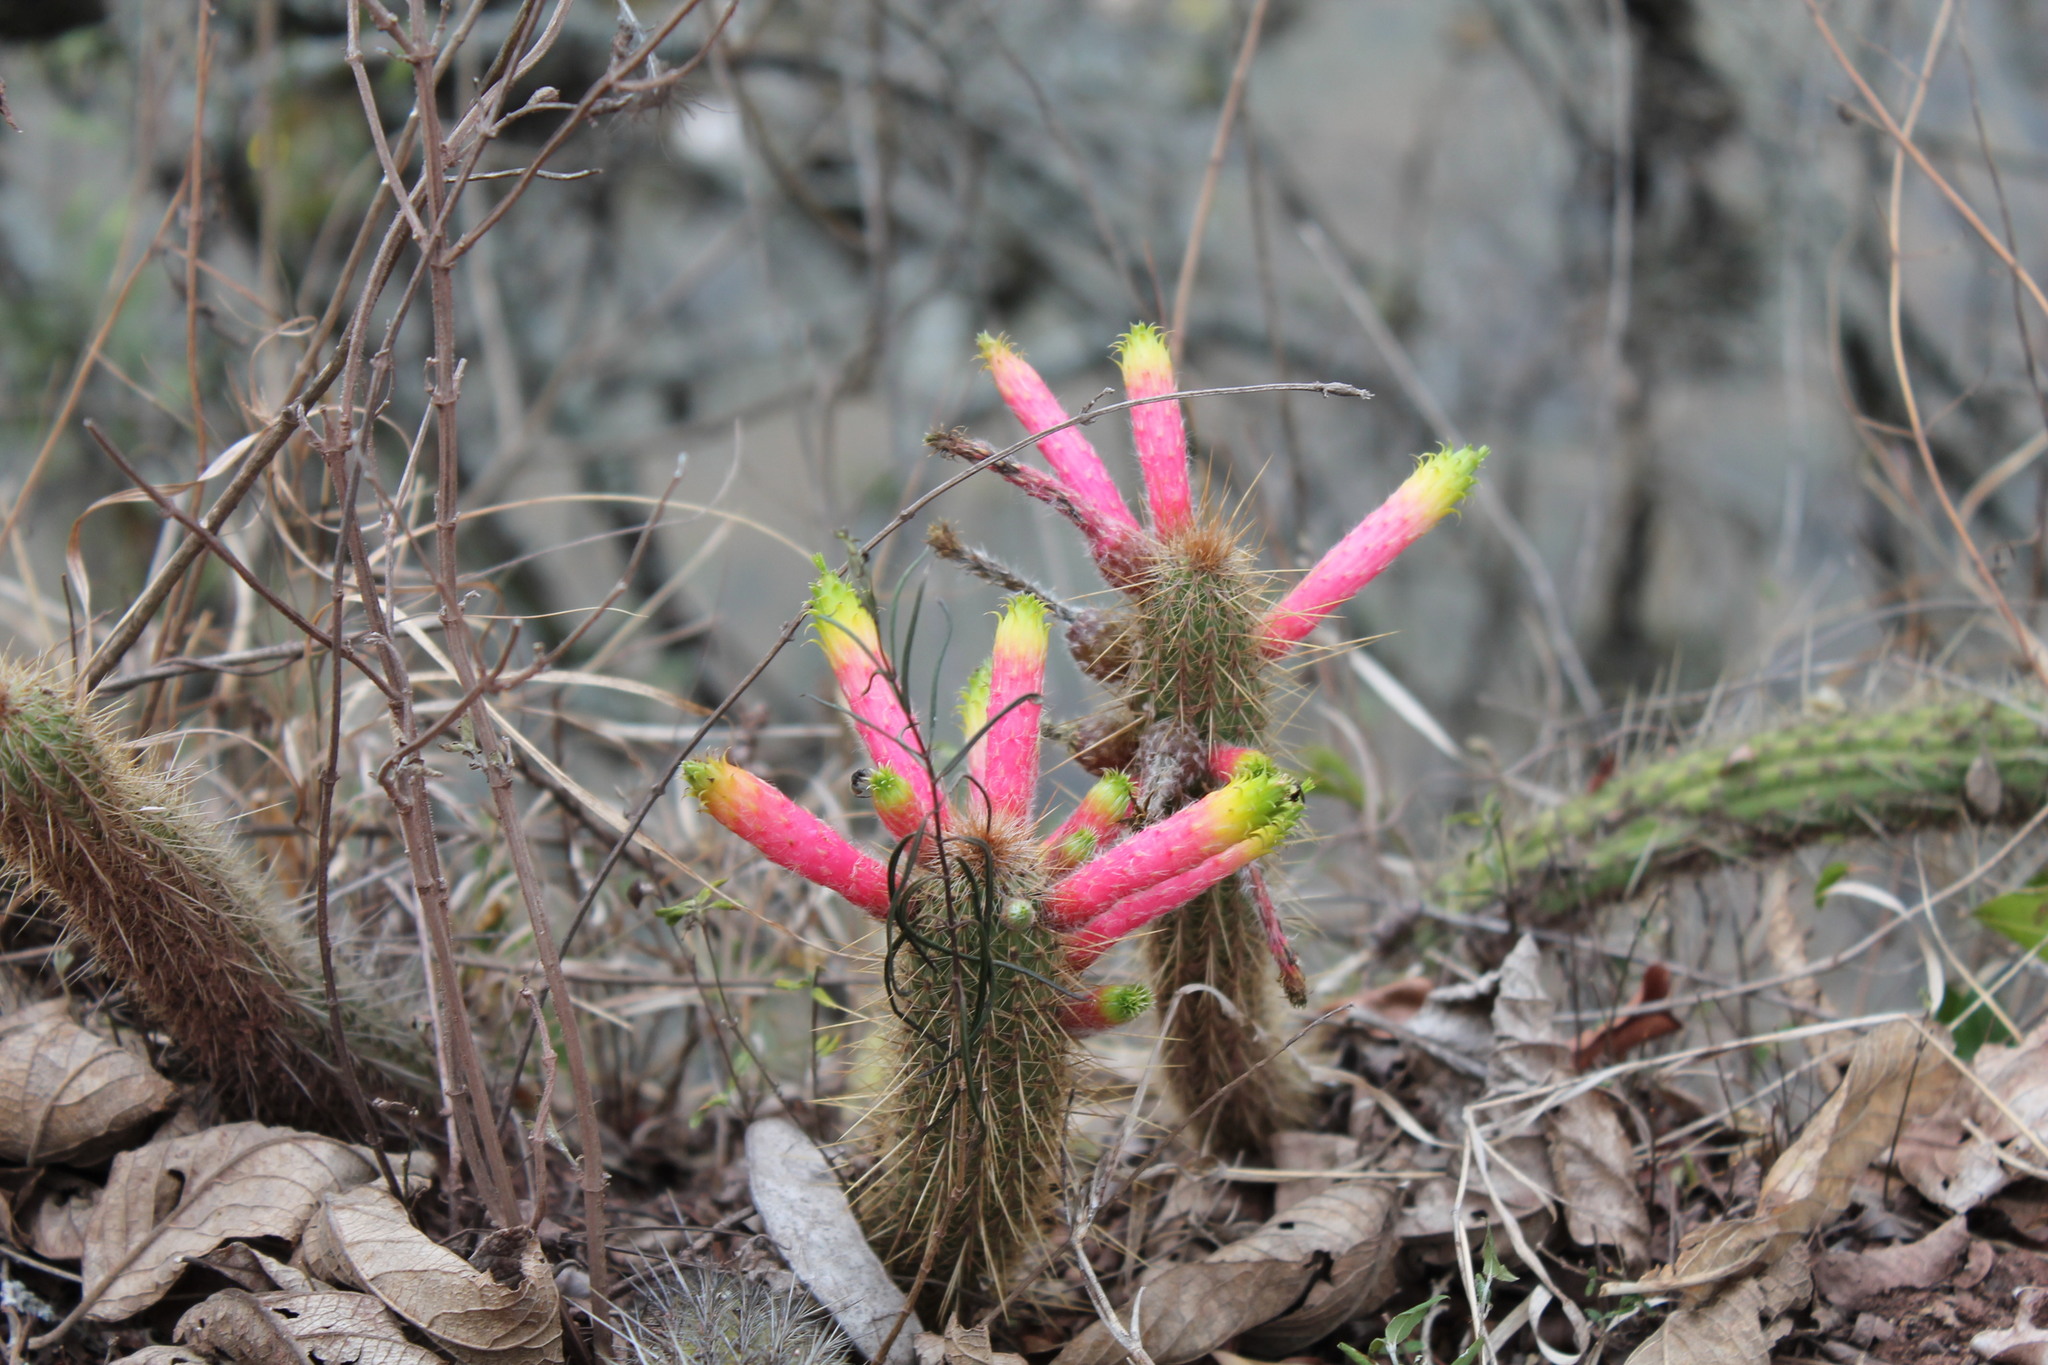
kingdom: Plantae
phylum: Tracheophyta
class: Magnoliopsida
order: Caryophyllales
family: Cactaceae
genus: Cleistocactus
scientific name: Cleistocactus smaragdiflorus
